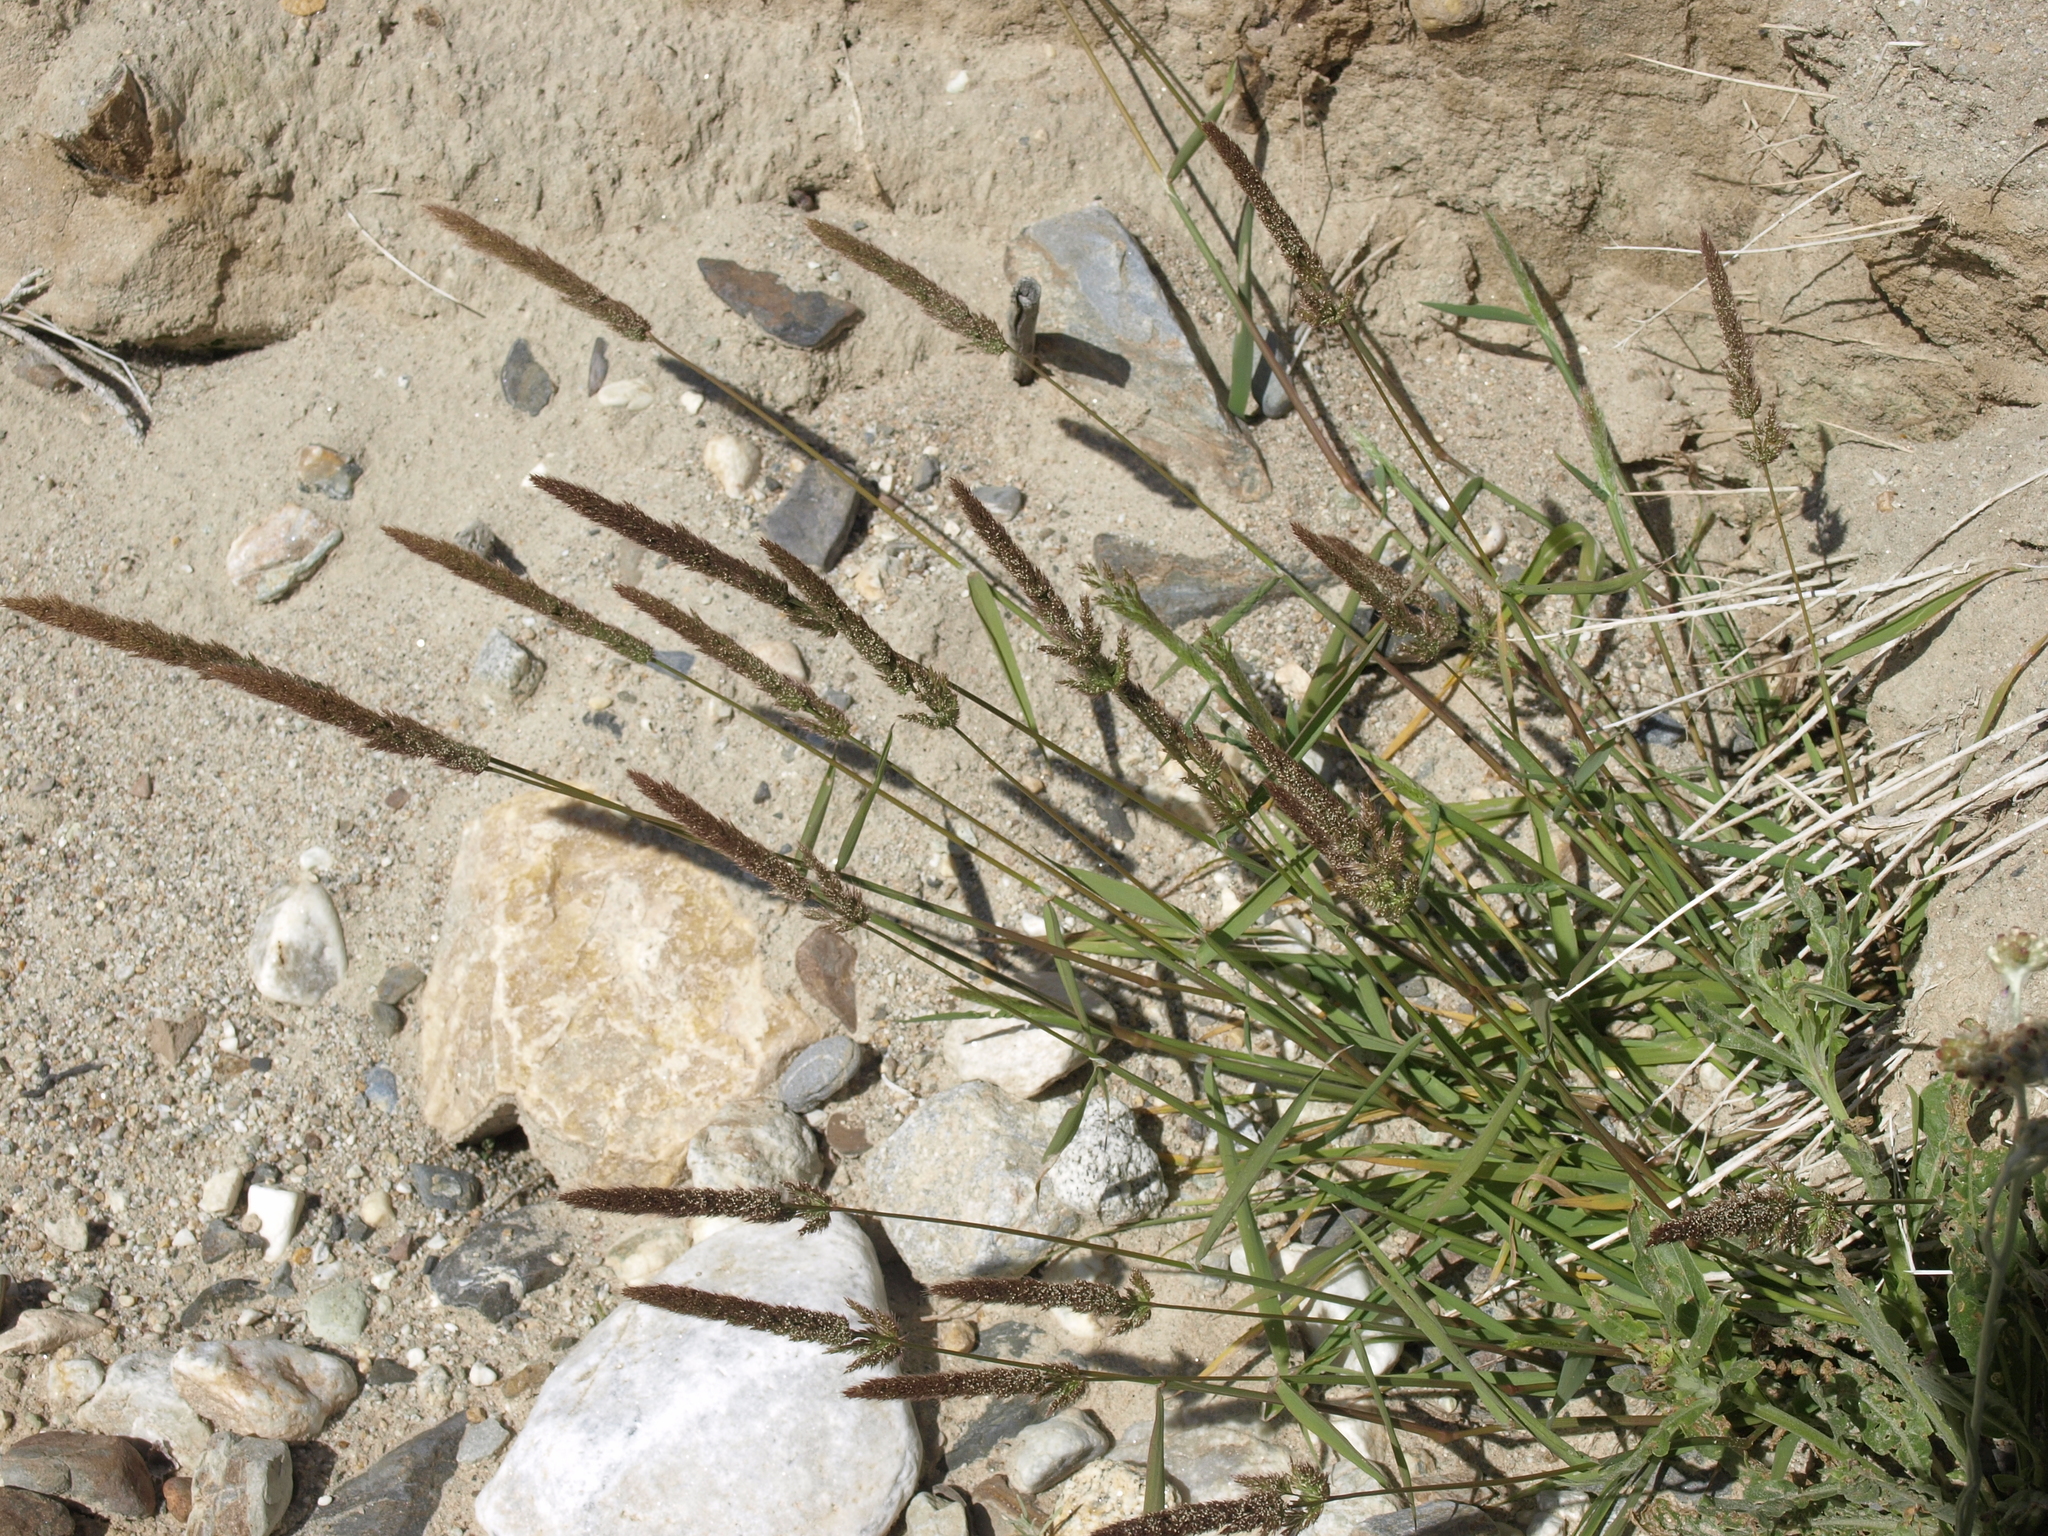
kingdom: Plantae
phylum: Tracheophyta
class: Liliopsida
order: Poales
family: Poaceae
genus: Polypogon
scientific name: Polypogon interruptus
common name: Ditch polypogon
